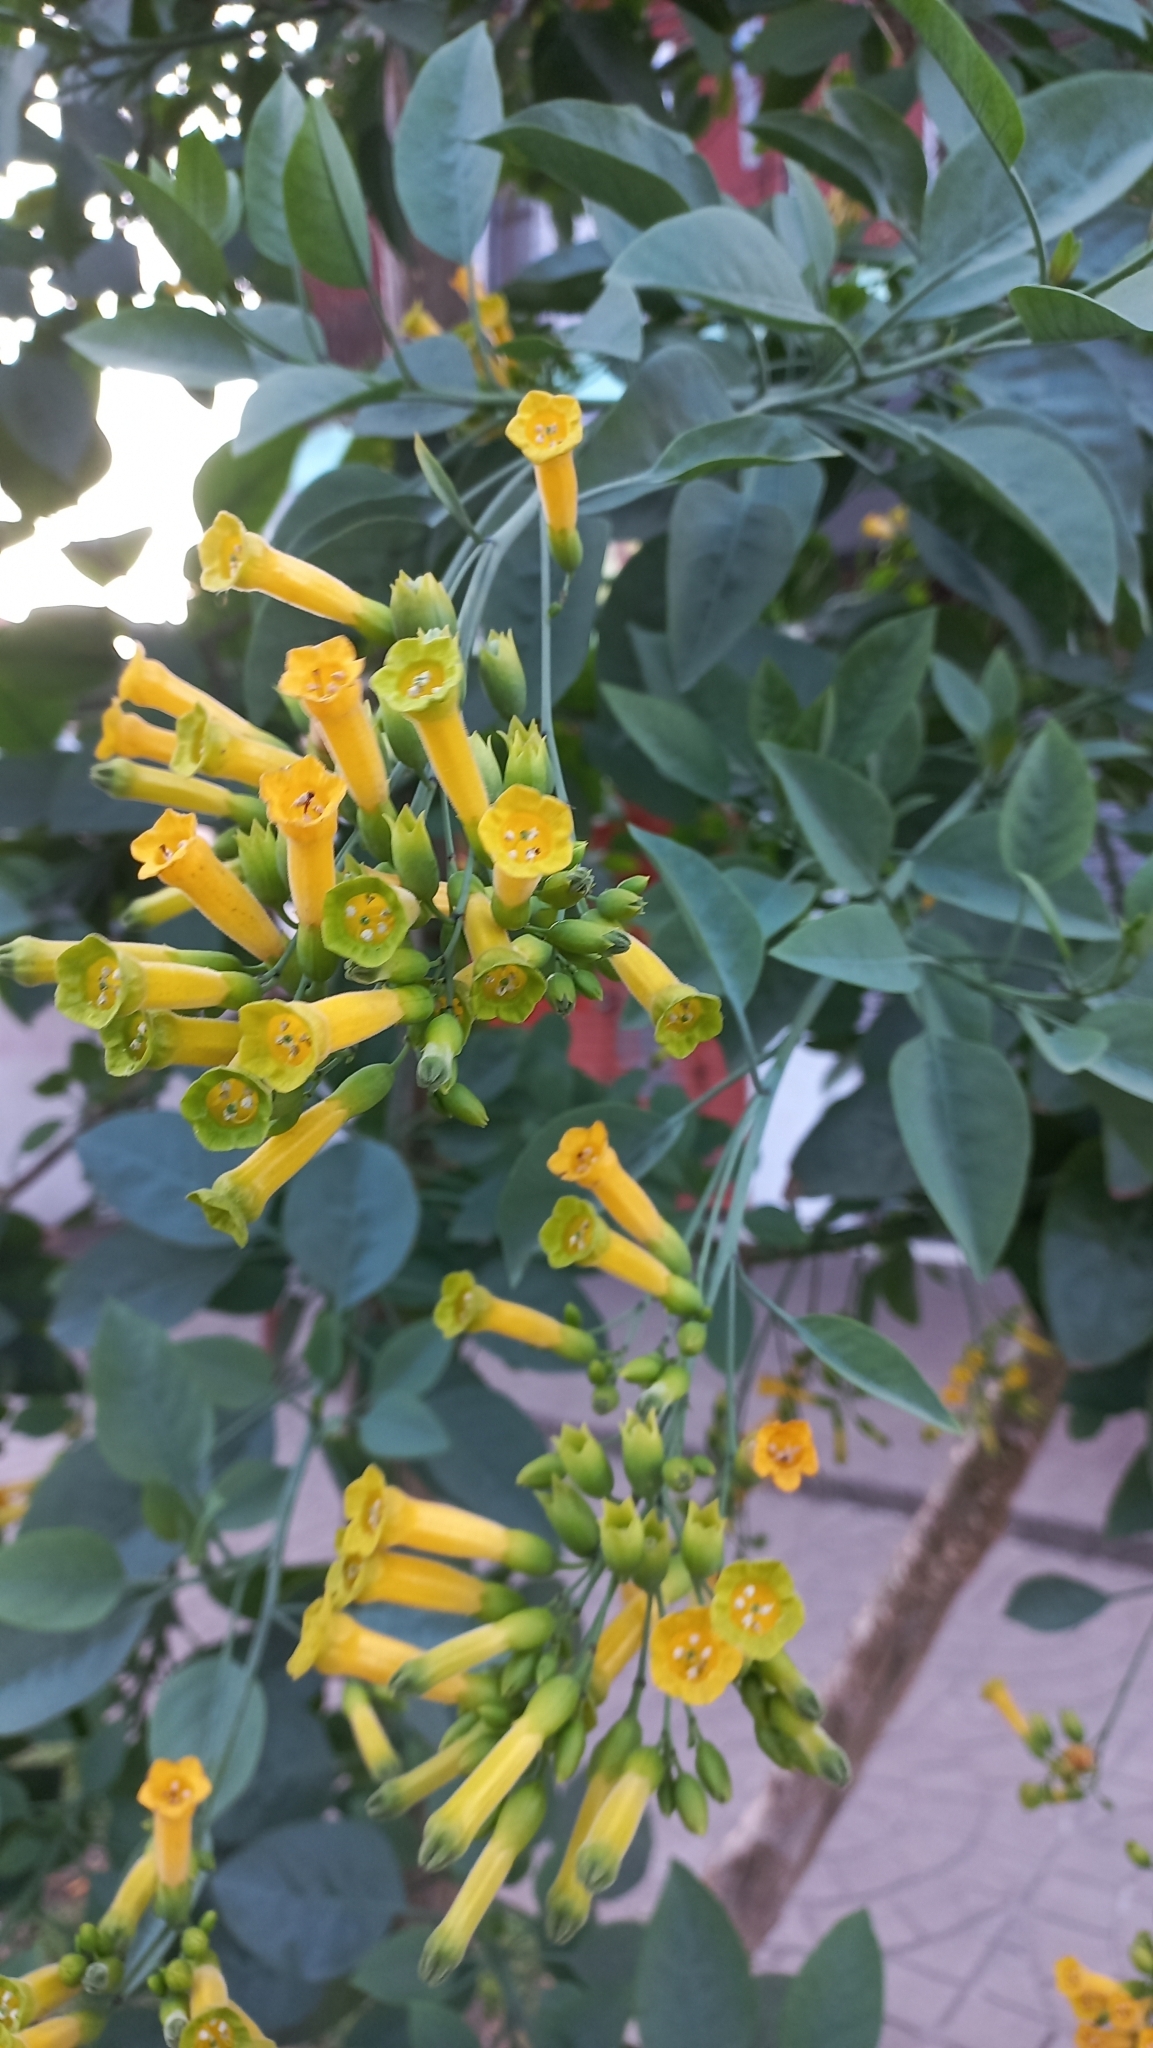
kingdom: Plantae
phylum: Tracheophyta
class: Magnoliopsida
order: Solanales
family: Solanaceae
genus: Nicotiana
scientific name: Nicotiana glauca
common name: Tree tobacco
